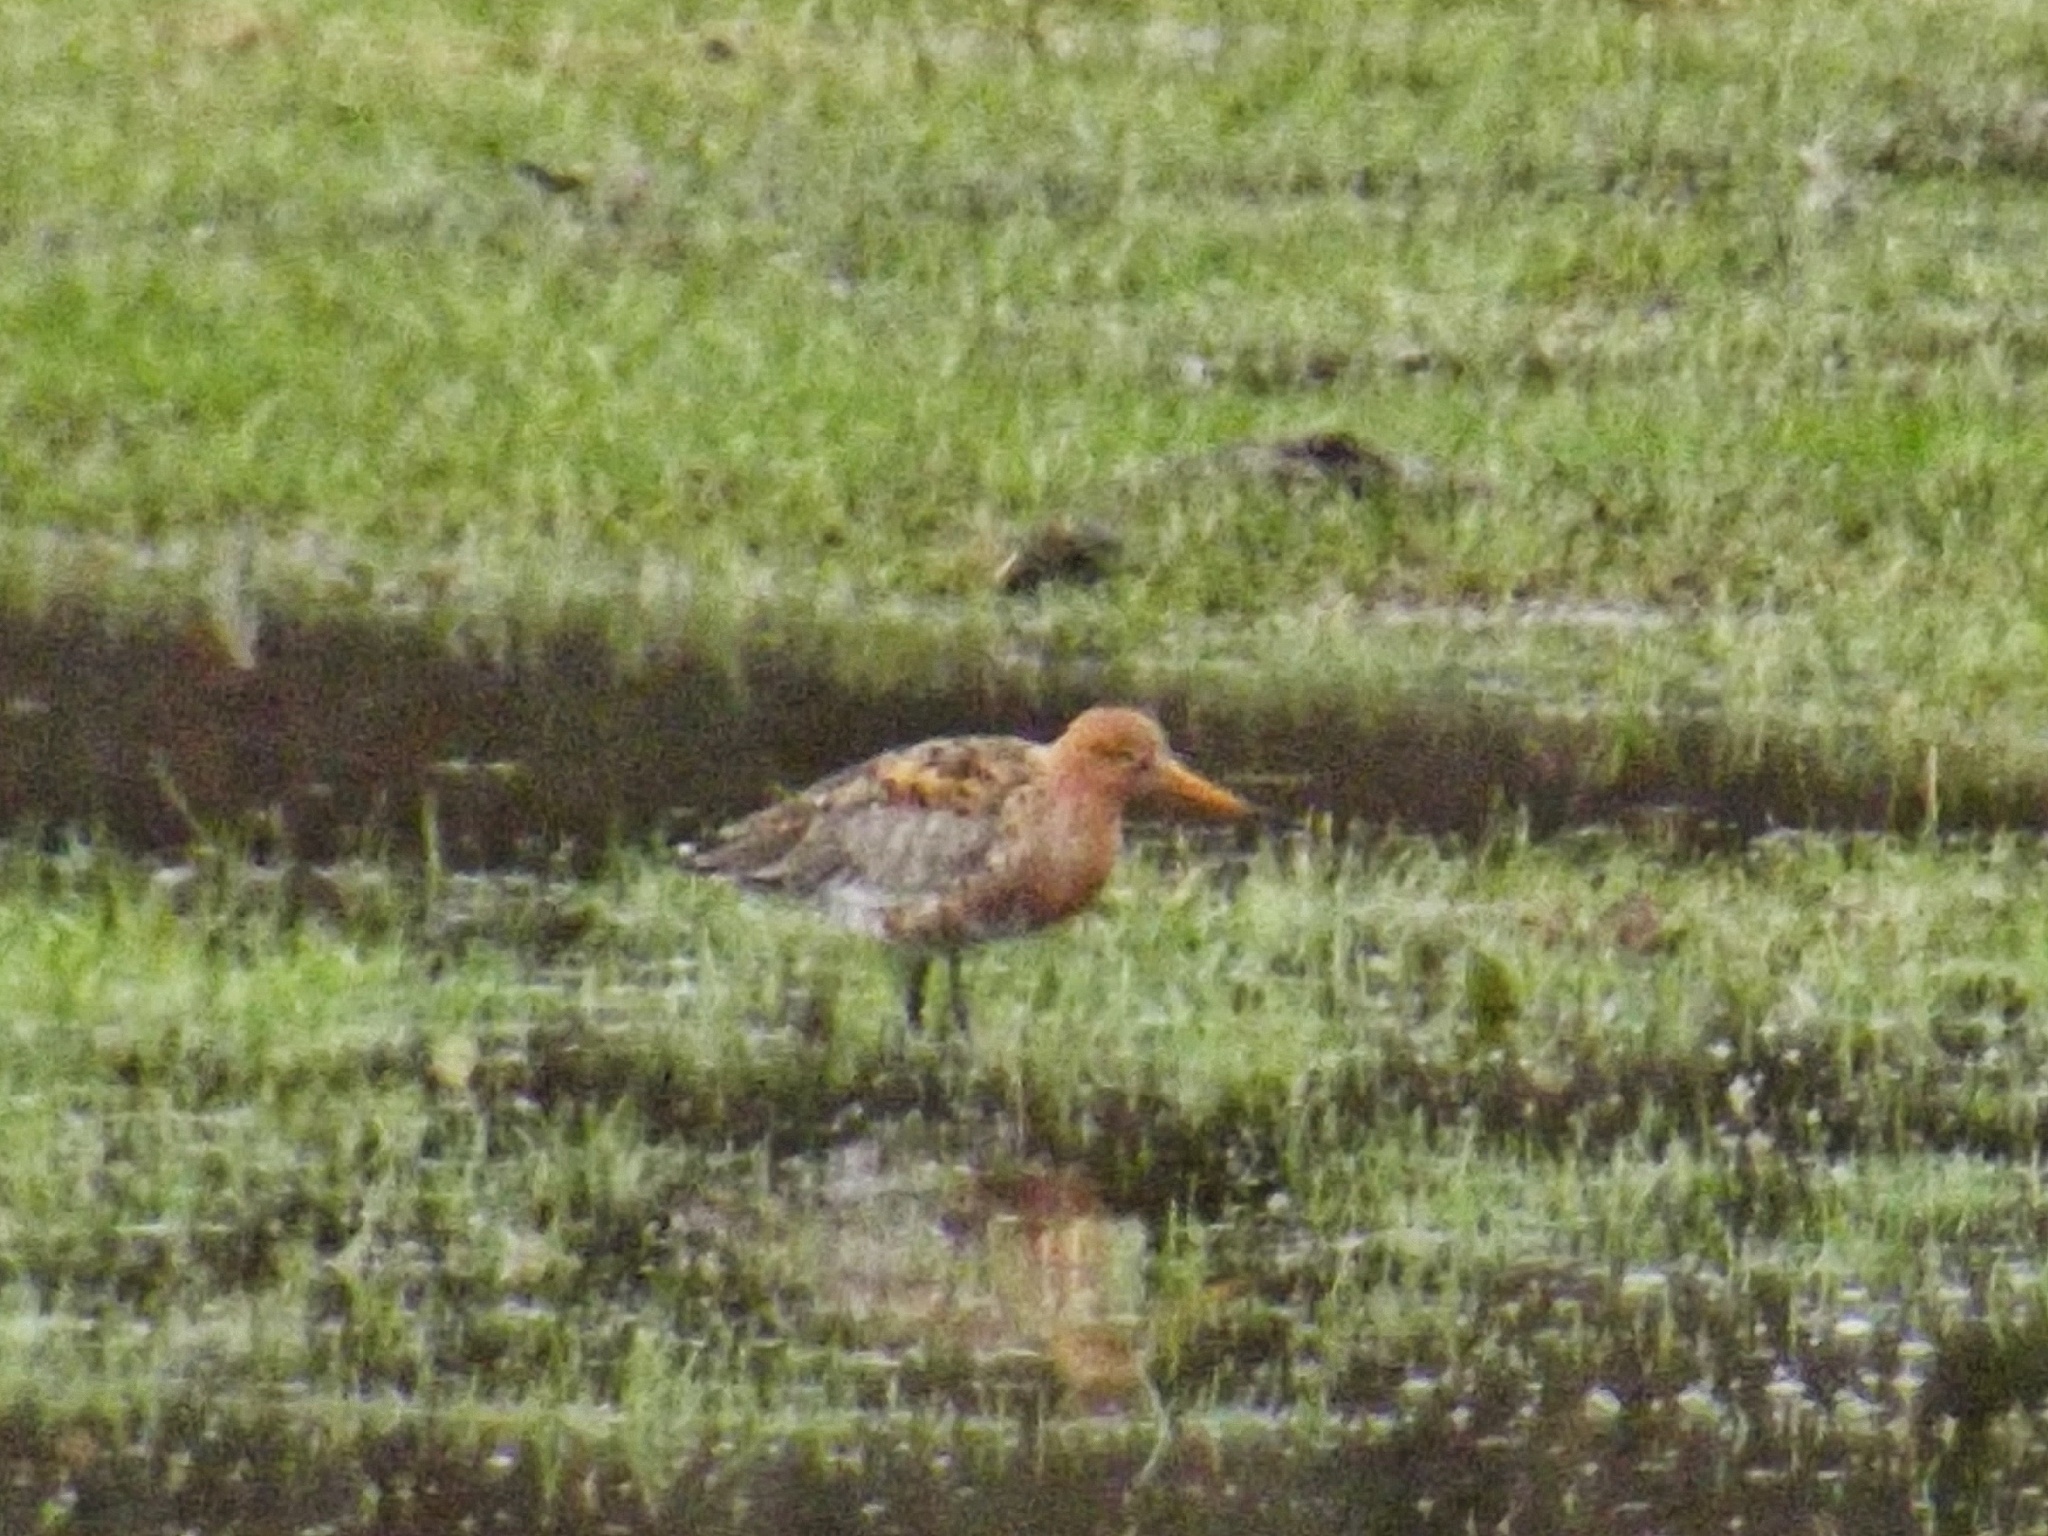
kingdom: Animalia
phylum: Chordata
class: Aves
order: Charadriiformes
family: Scolopacidae
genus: Limosa
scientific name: Limosa limosa
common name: Black-tailed godwit
